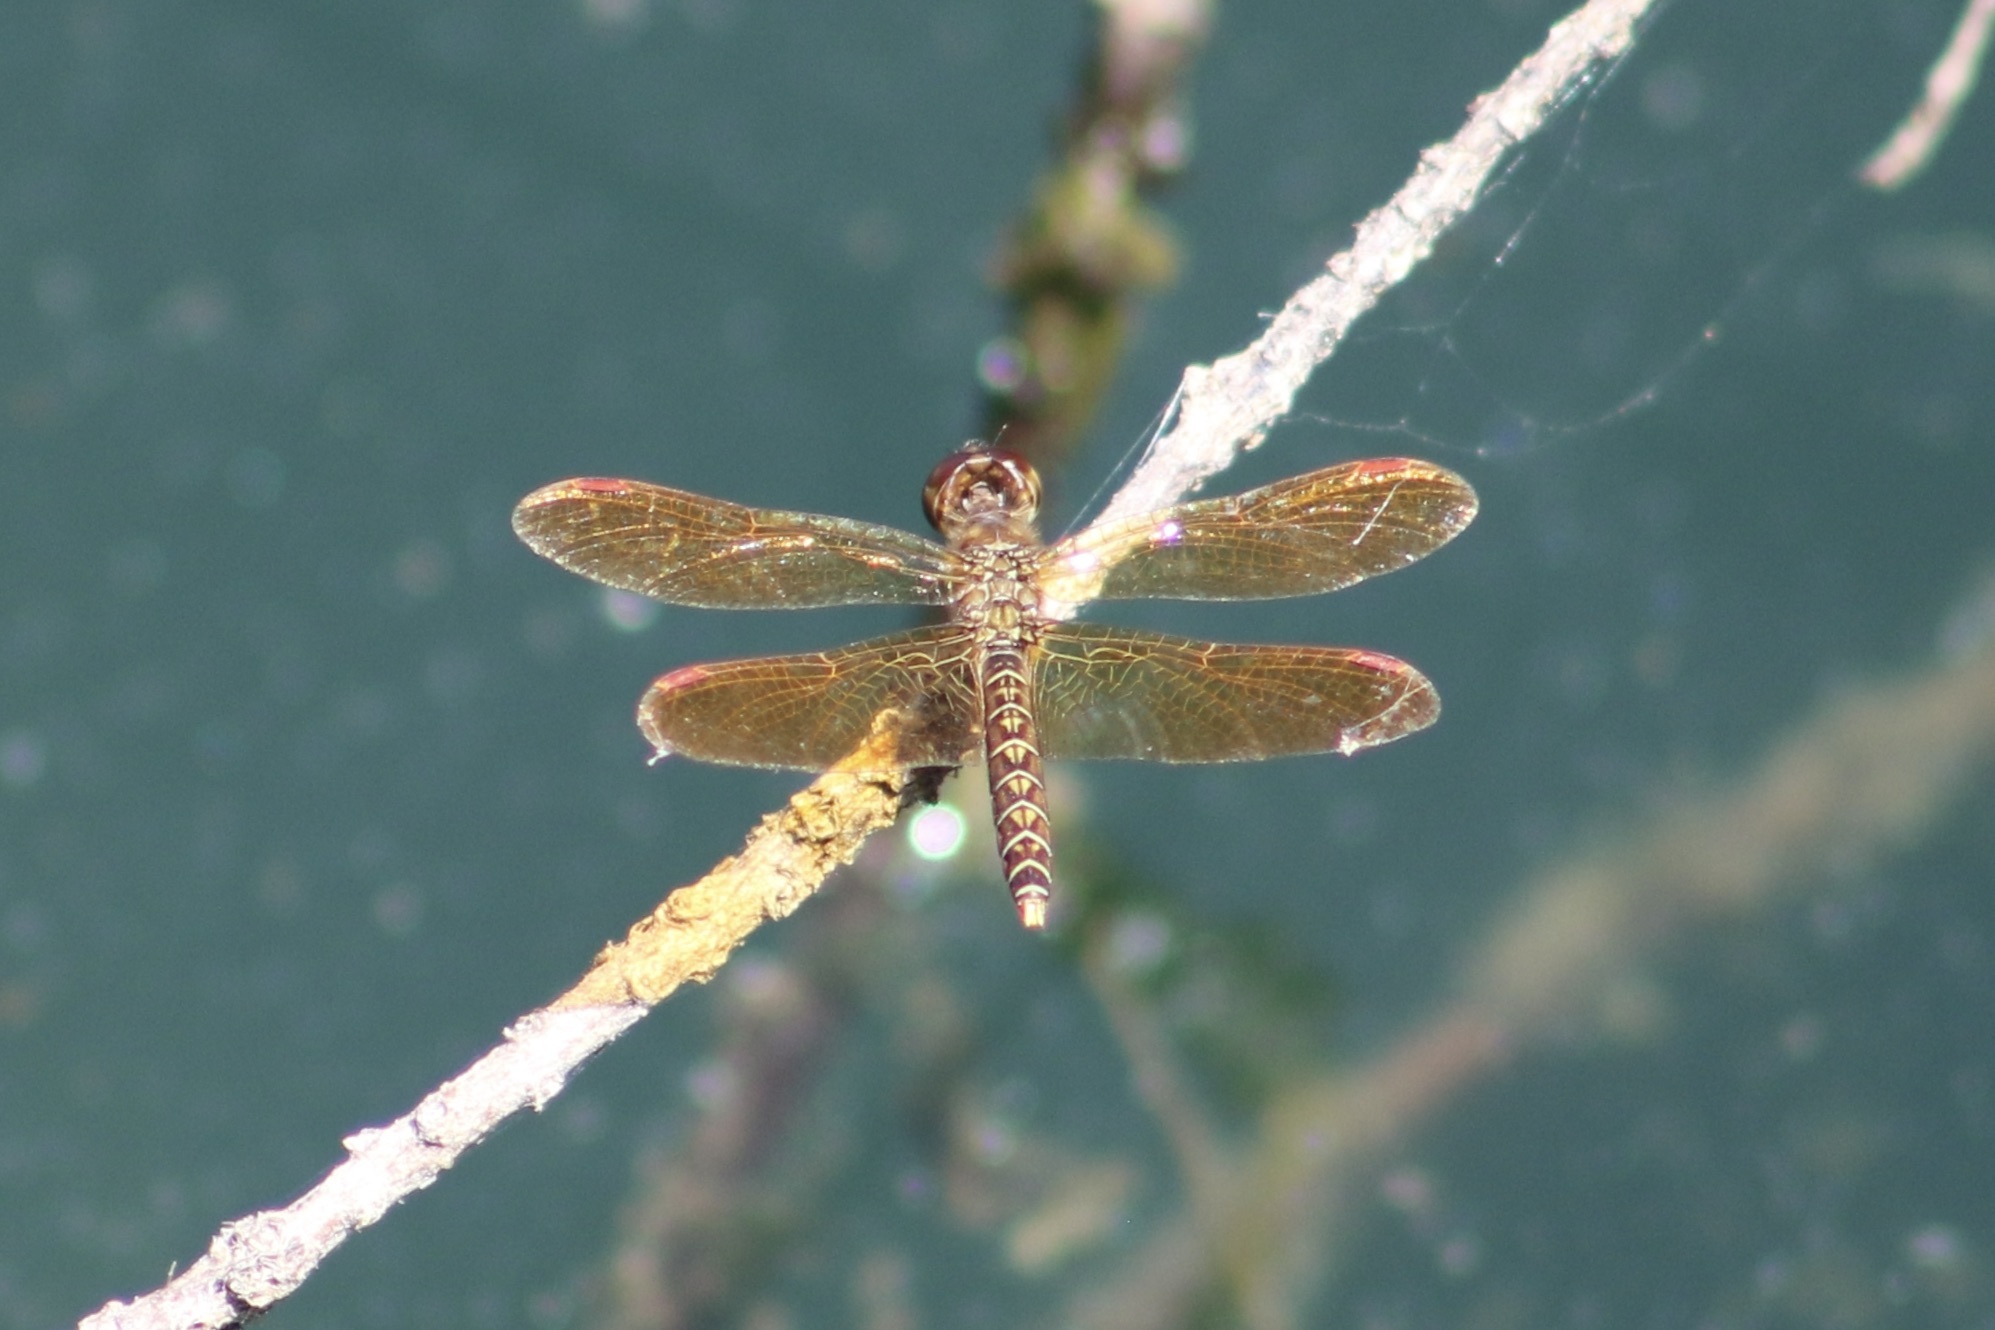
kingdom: Animalia
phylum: Arthropoda
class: Insecta
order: Odonata
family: Libellulidae
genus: Perithemis
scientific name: Perithemis tenera
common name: Eastern amberwing
